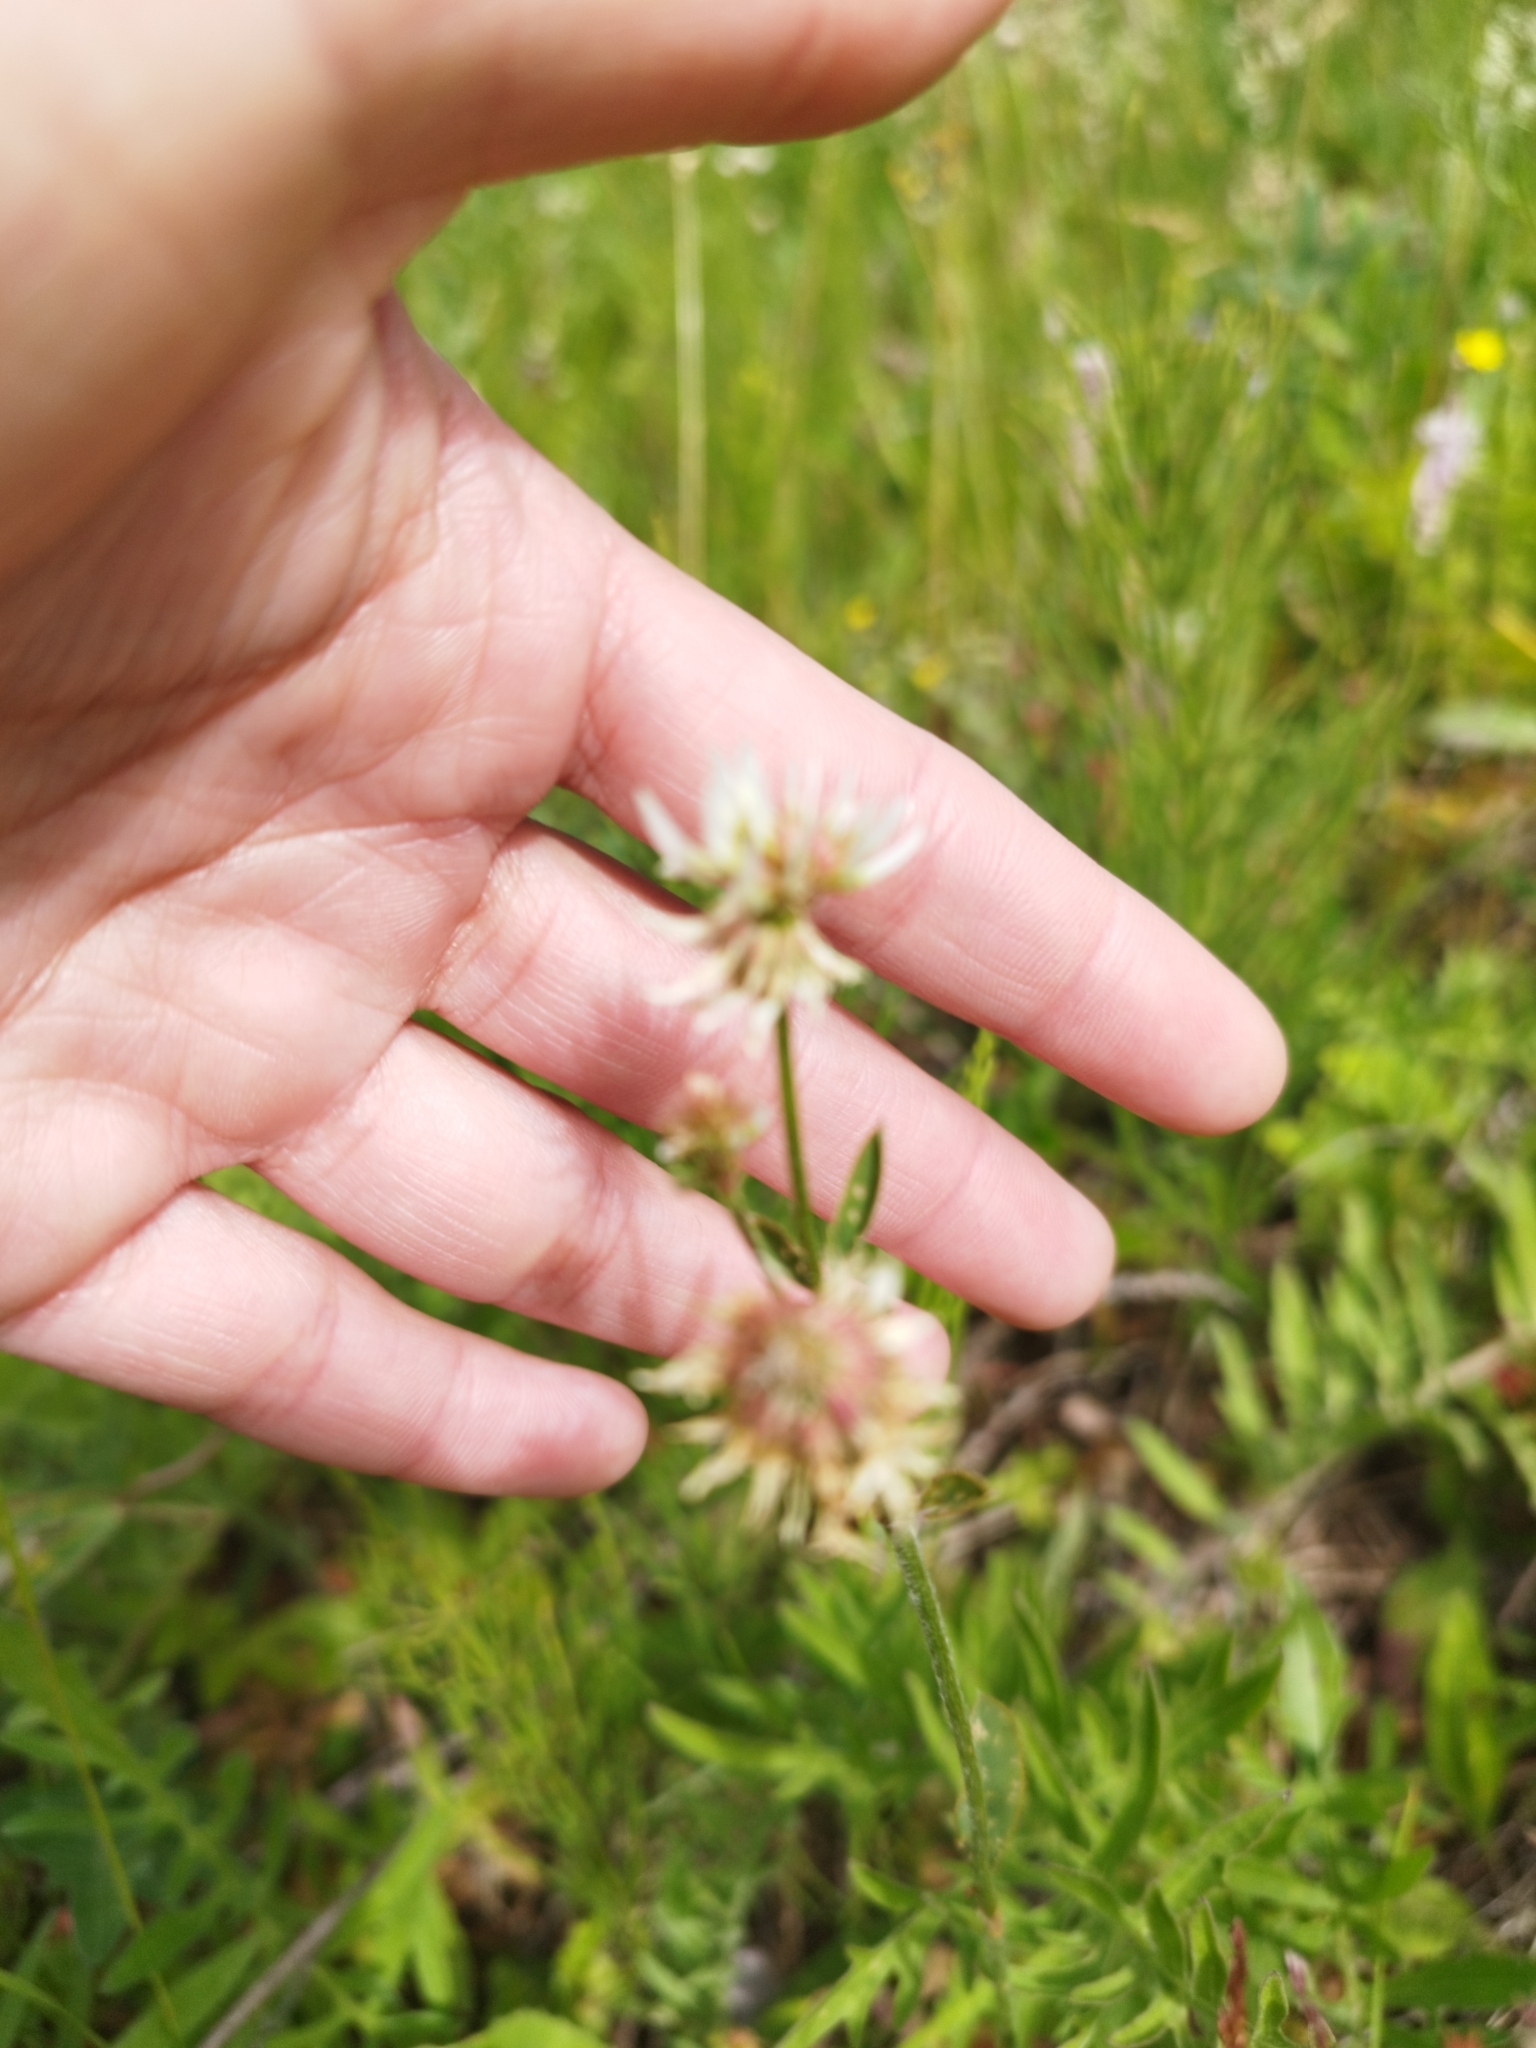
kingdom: Plantae
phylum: Tracheophyta
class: Magnoliopsida
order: Fabales
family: Fabaceae
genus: Trifolium
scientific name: Trifolium montanum
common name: Mountain clover
